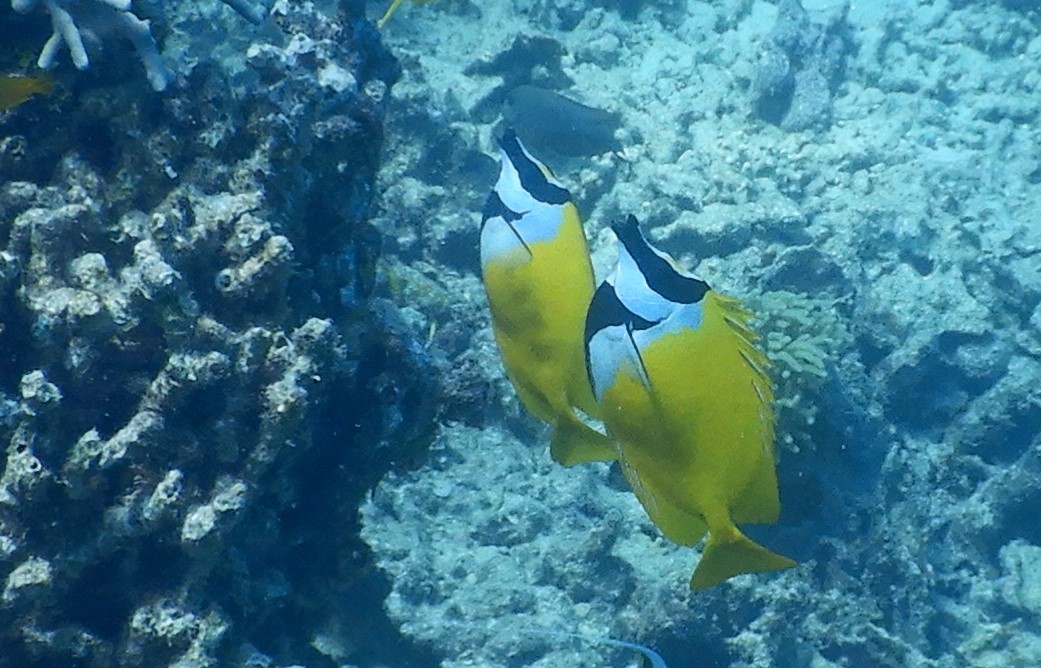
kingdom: Animalia
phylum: Chordata
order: Perciformes
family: Siganidae
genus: Siganus
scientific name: Siganus vulpinus
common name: Foxface
